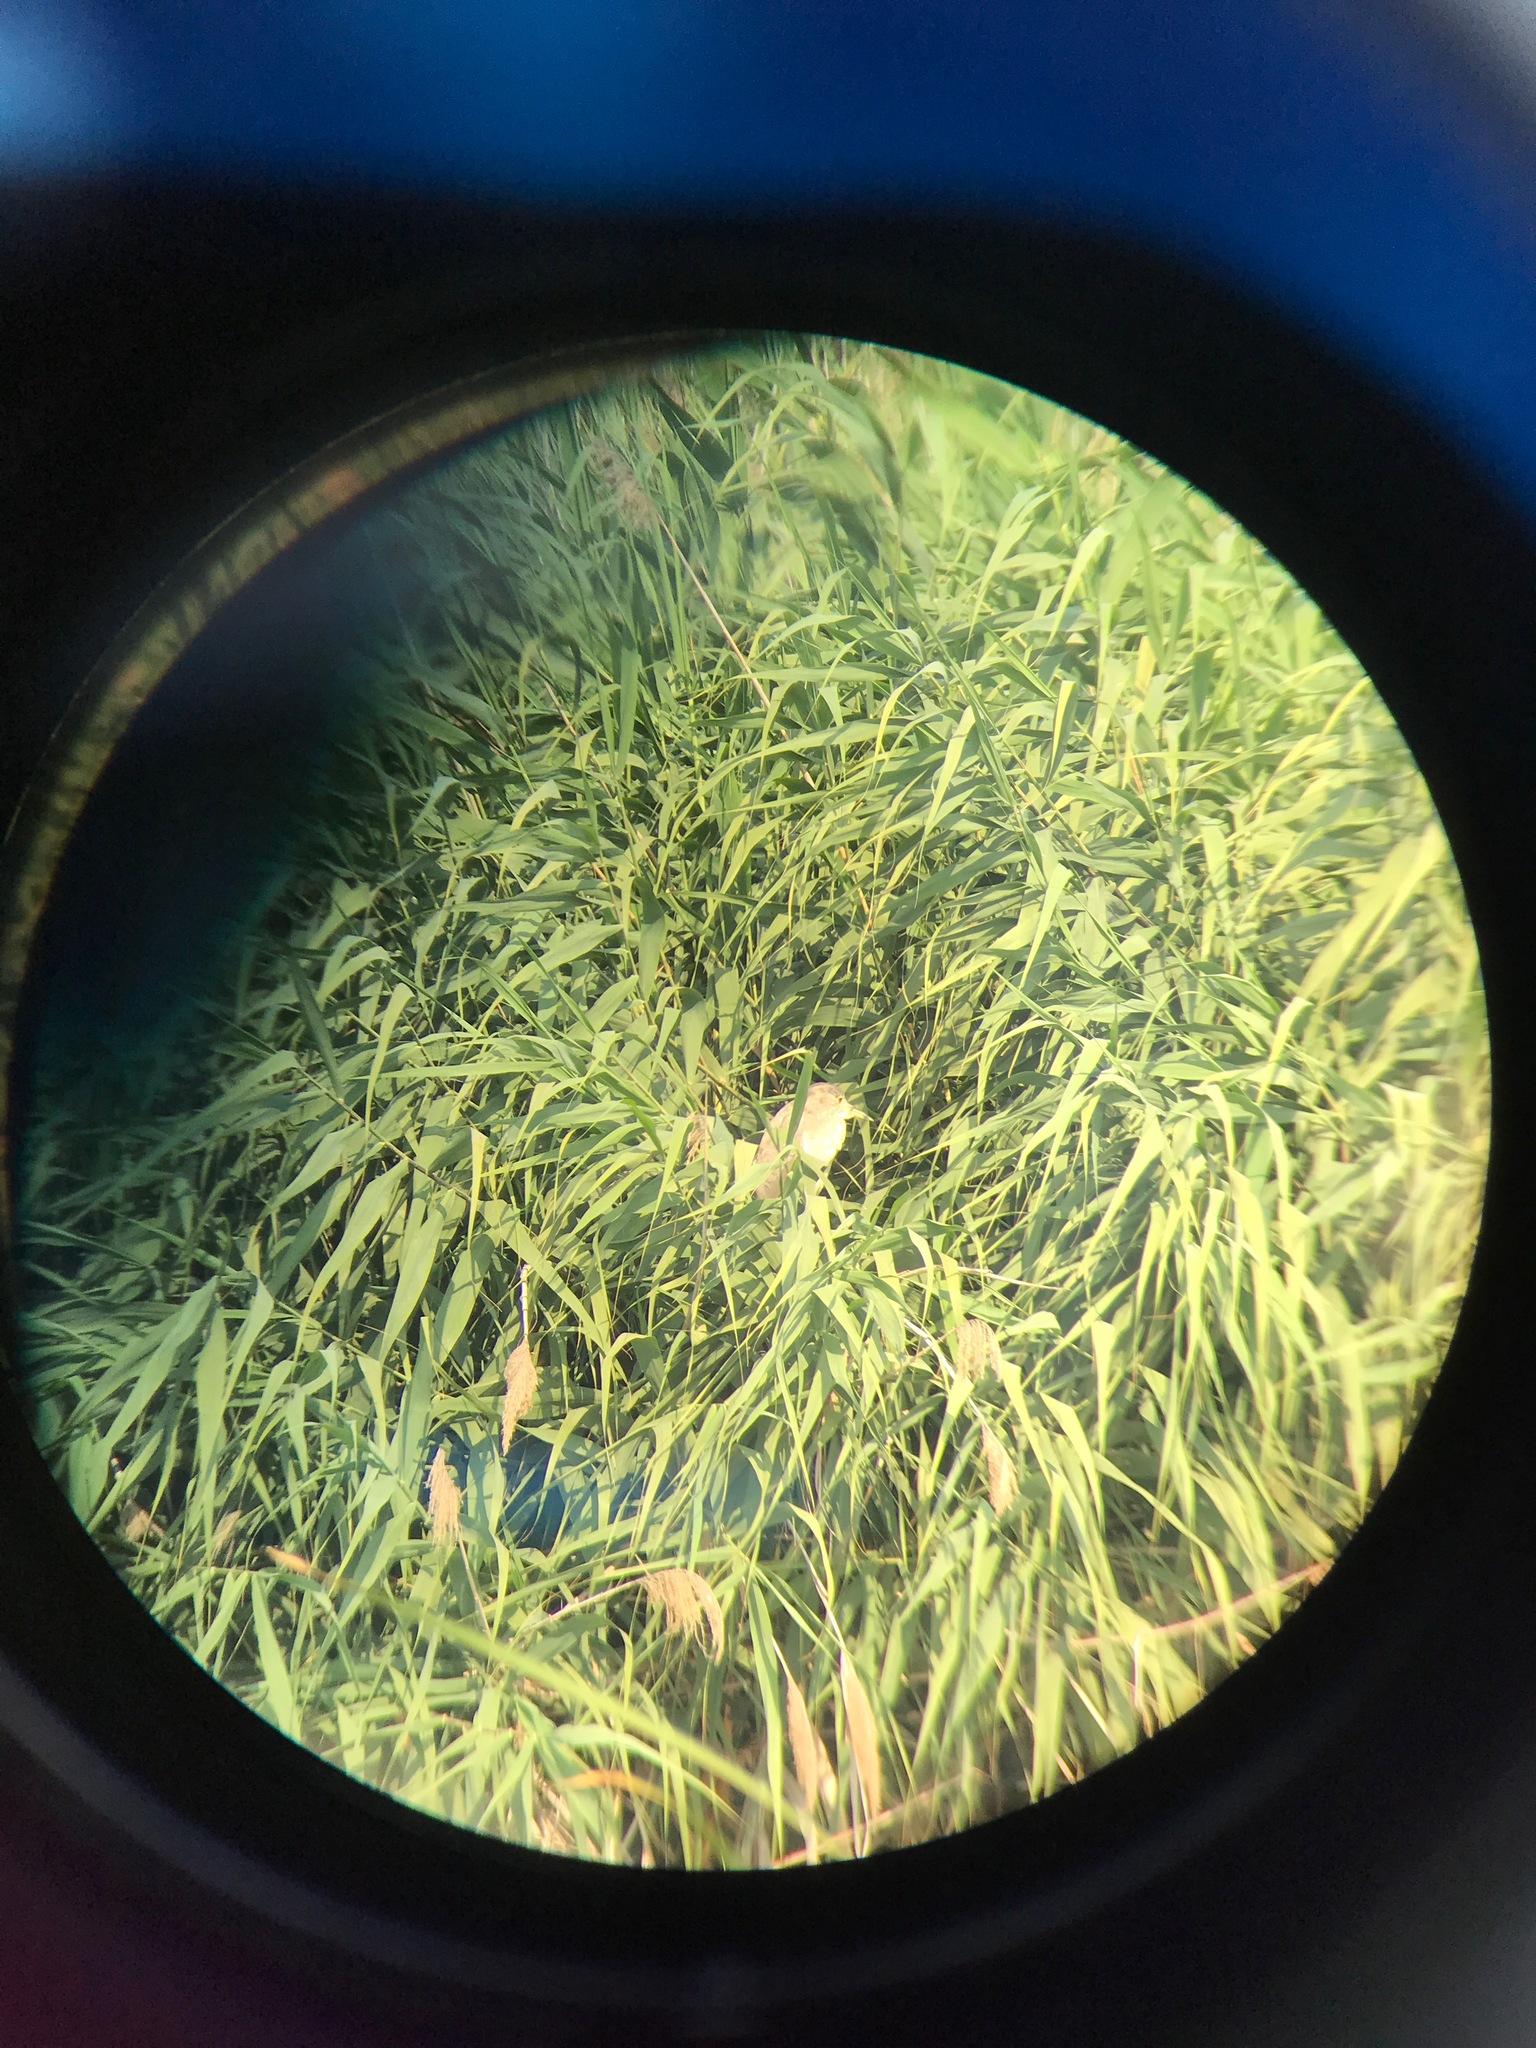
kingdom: Animalia
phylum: Chordata
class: Aves
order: Pelecaniformes
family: Ardeidae
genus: Nycticorax
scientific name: Nycticorax nycticorax
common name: Black-crowned night heron
